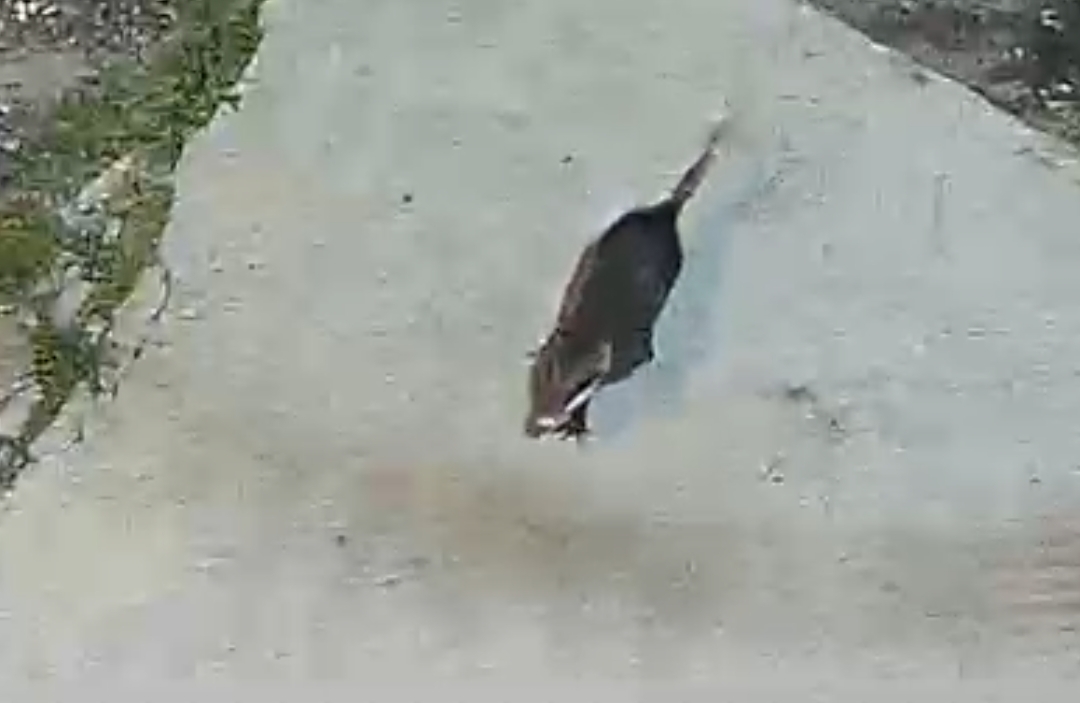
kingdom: Animalia
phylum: Chordata
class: Mammalia
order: Didelphimorphia
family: Didelphidae
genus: Didelphis
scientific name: Didelphis virginiana
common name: Virginia opossum
